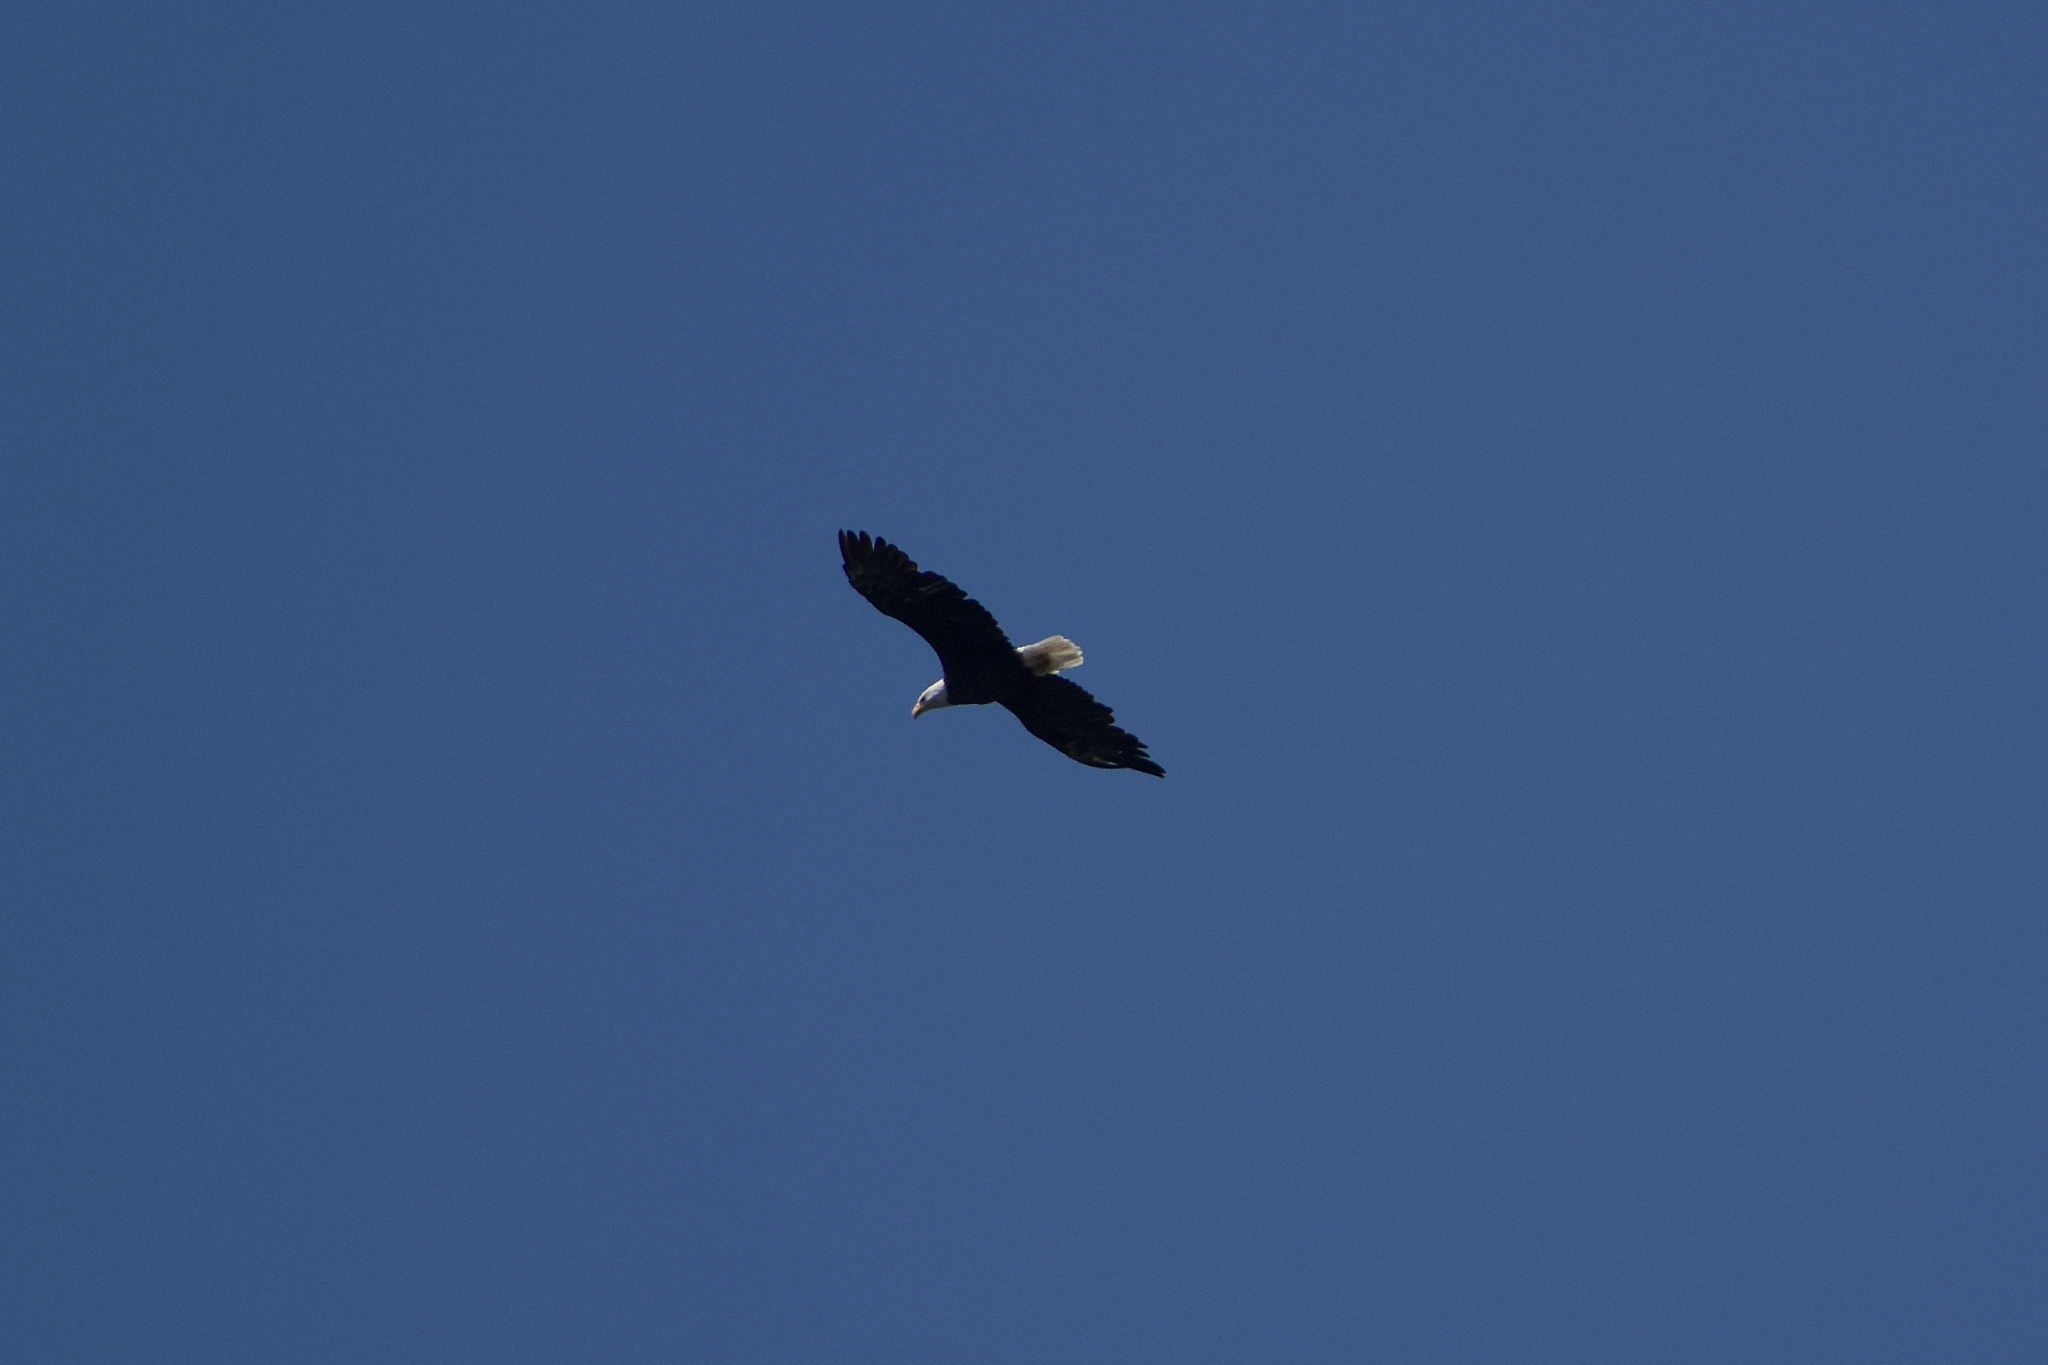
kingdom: Animalia
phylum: Chordata
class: Aves
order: Accipitriformes
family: Accipitridae
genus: Haliaeetus
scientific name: Haliaeetus leucocephalus
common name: Bald eagle
